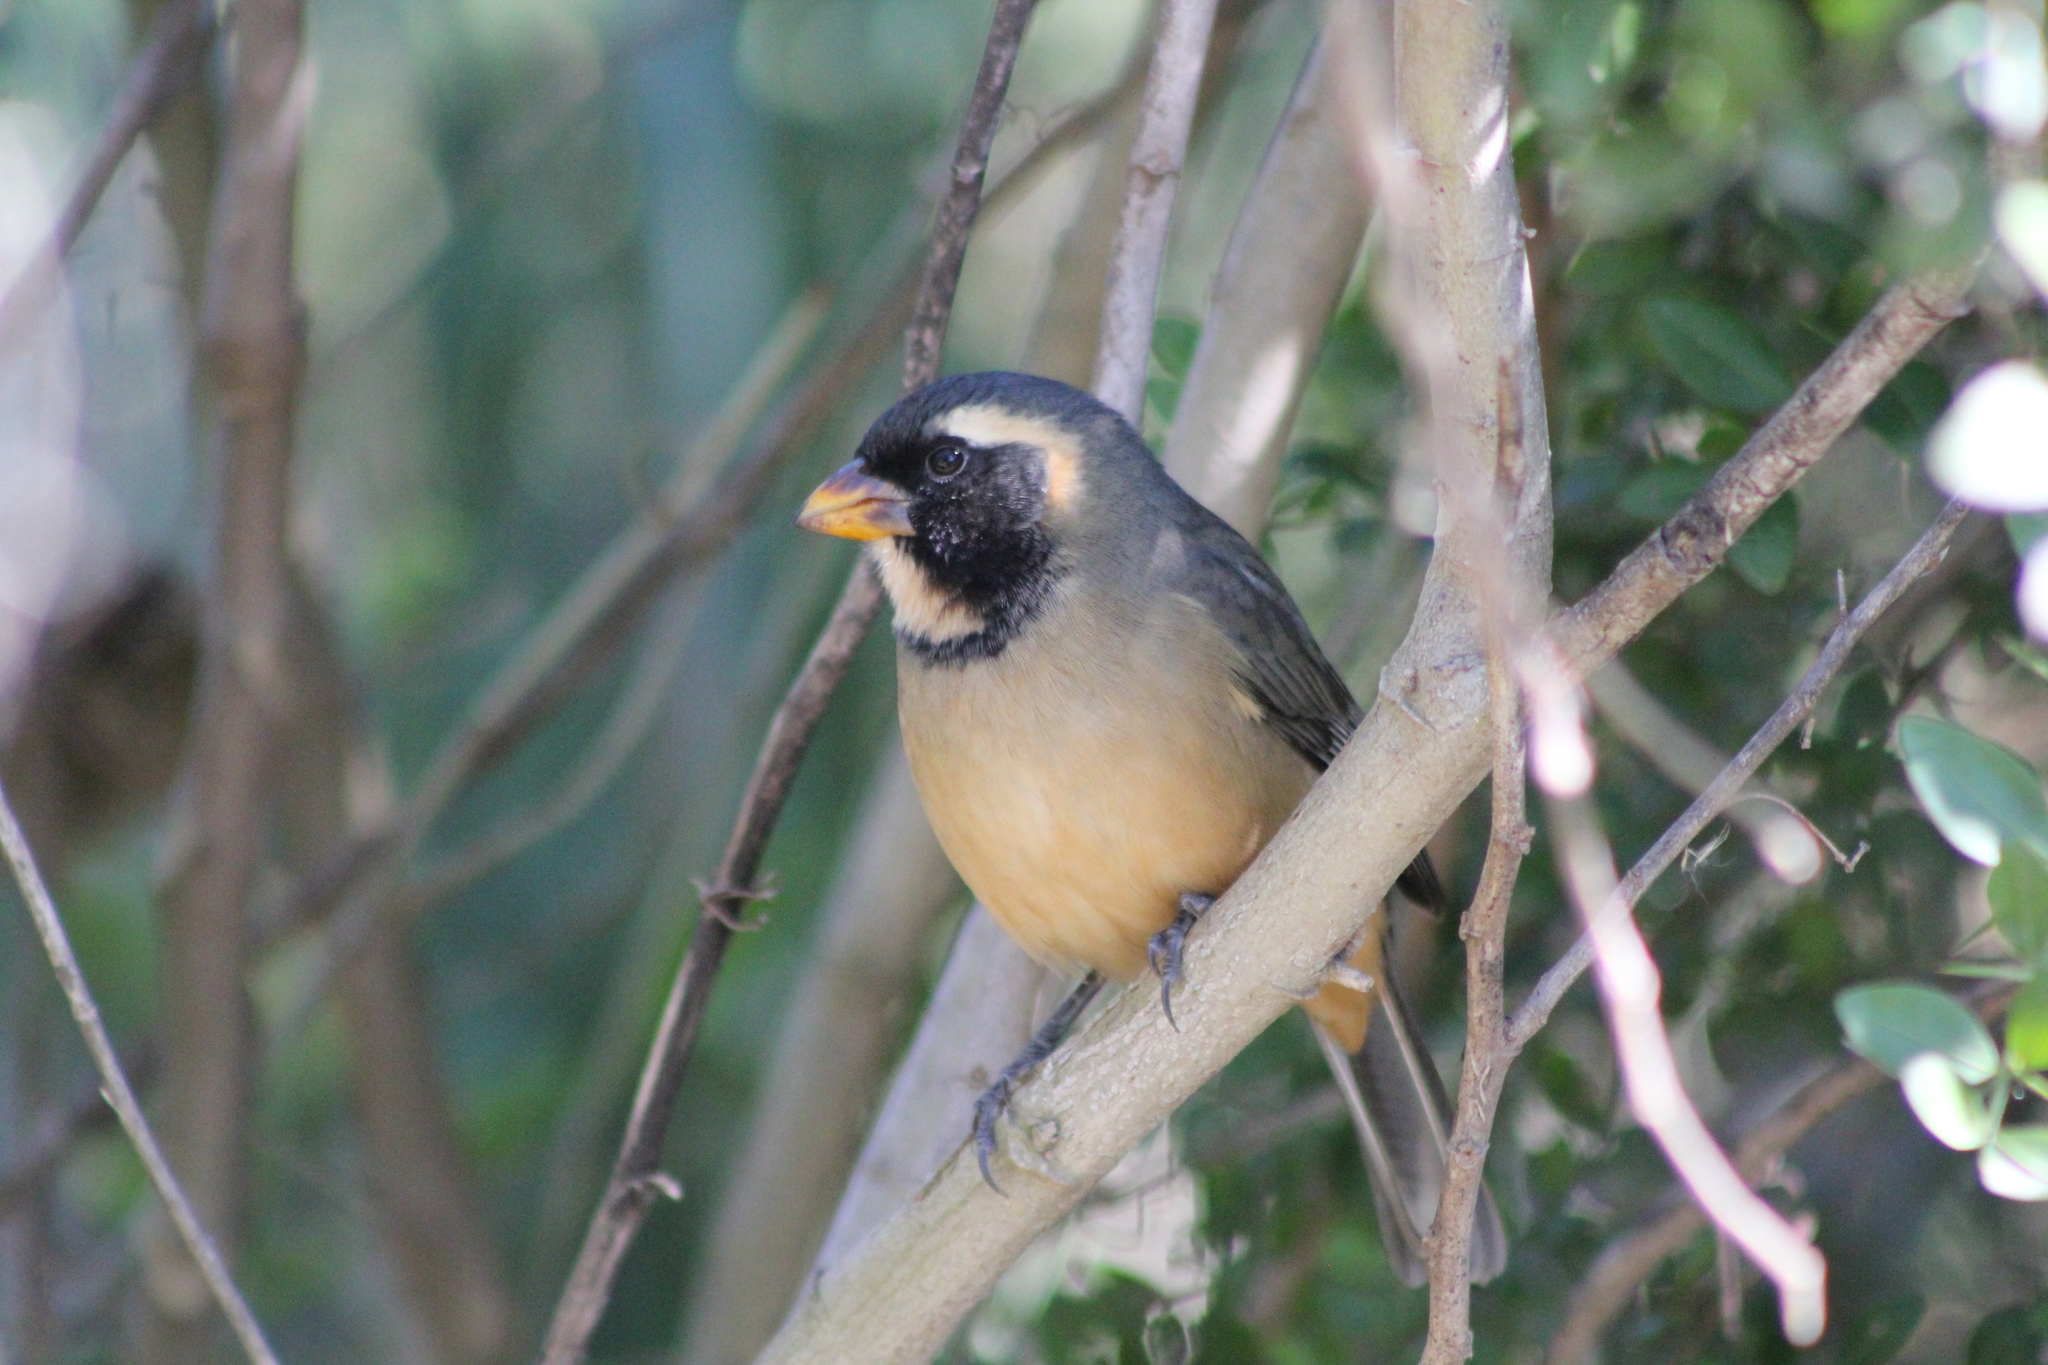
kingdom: Animalia
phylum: Chordata
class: Aves
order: Passeriformes
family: Thraupidae
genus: Saltator
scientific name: Saltator aurantiirostris
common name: Golden-billed saltator
